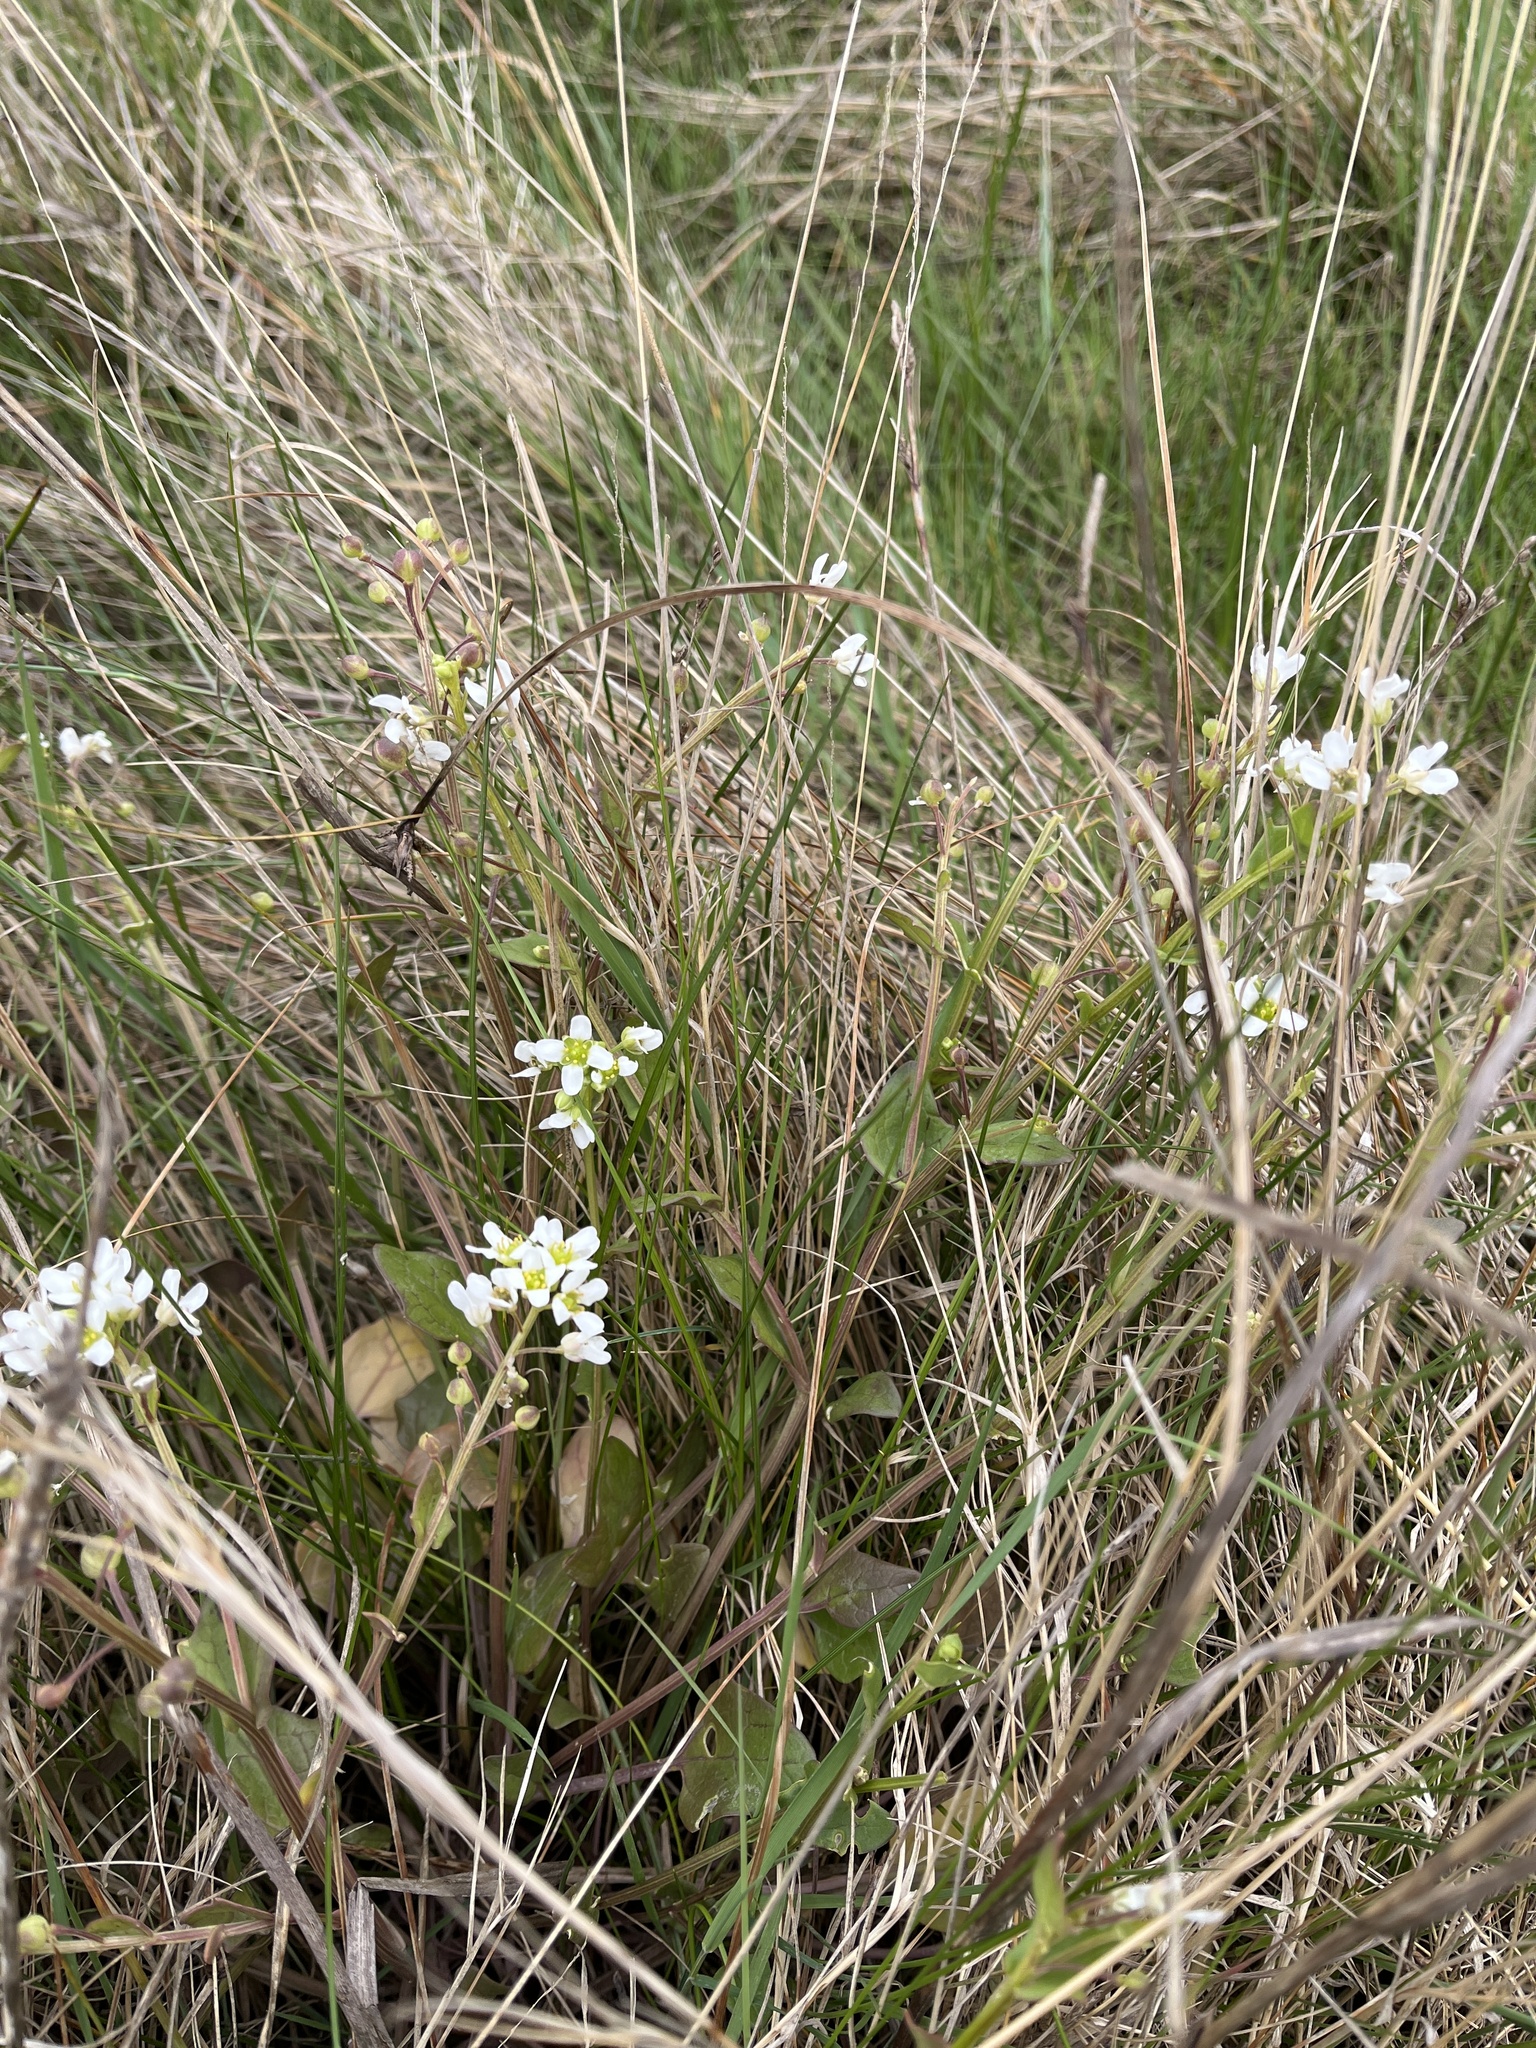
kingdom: Plantae
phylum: Tracheophyta
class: Magnoliopsida
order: Brassicales
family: Brassicaceae
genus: Cochlearia
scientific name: Cochlearia hollandica
